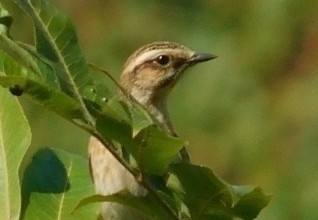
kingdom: Animalia
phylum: Chordata
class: Aves
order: Passeriformes
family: Muscicapidae
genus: Saxicola
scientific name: Saxicola rubetra
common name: Whinchat
